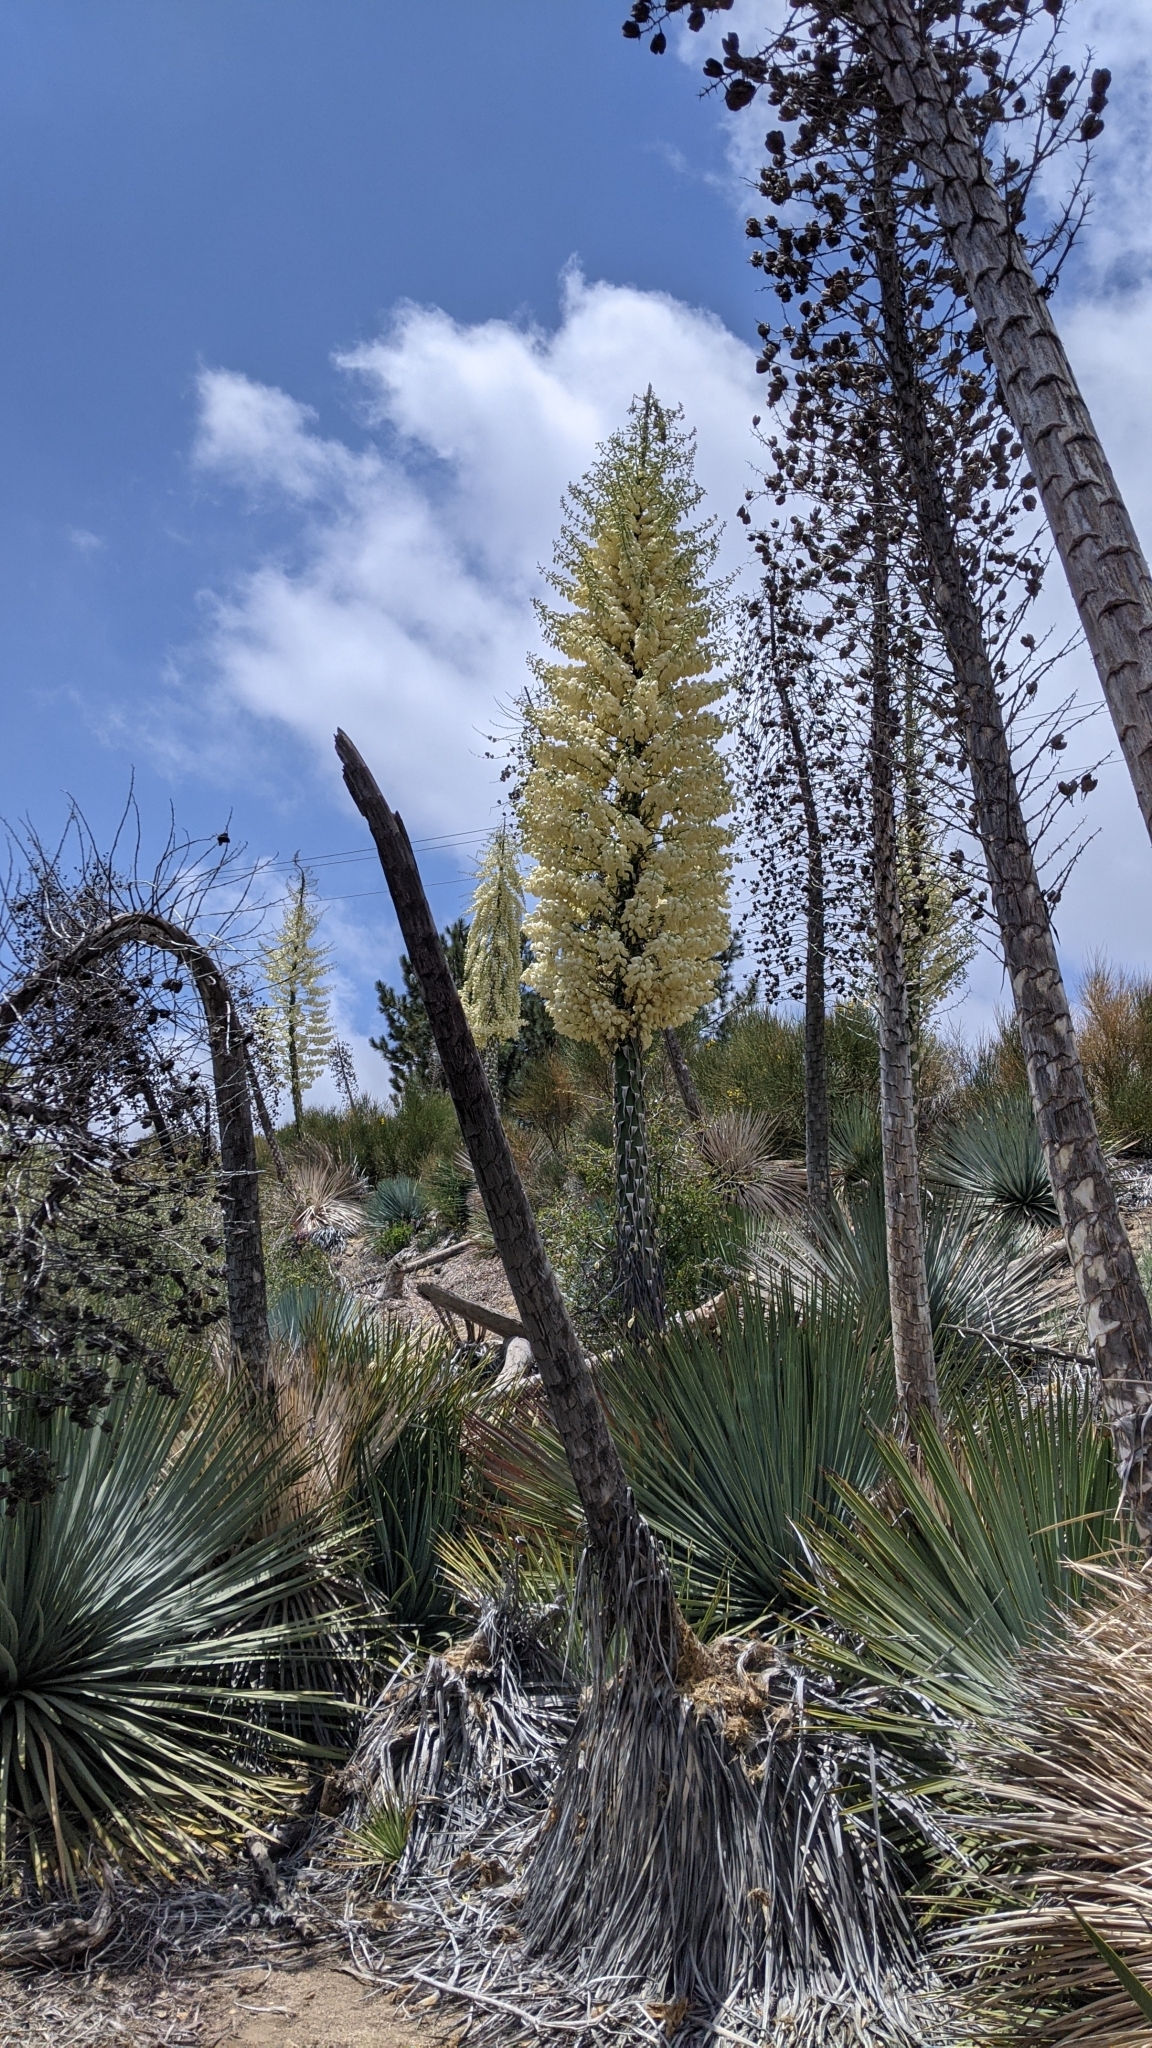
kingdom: Plantae
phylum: Tracheophyta
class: Liliopsida
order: Asparagales
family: Asparagaceae
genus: Hesperoyucca
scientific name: Hesperoyucca whipplei
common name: Our lord's-candle
